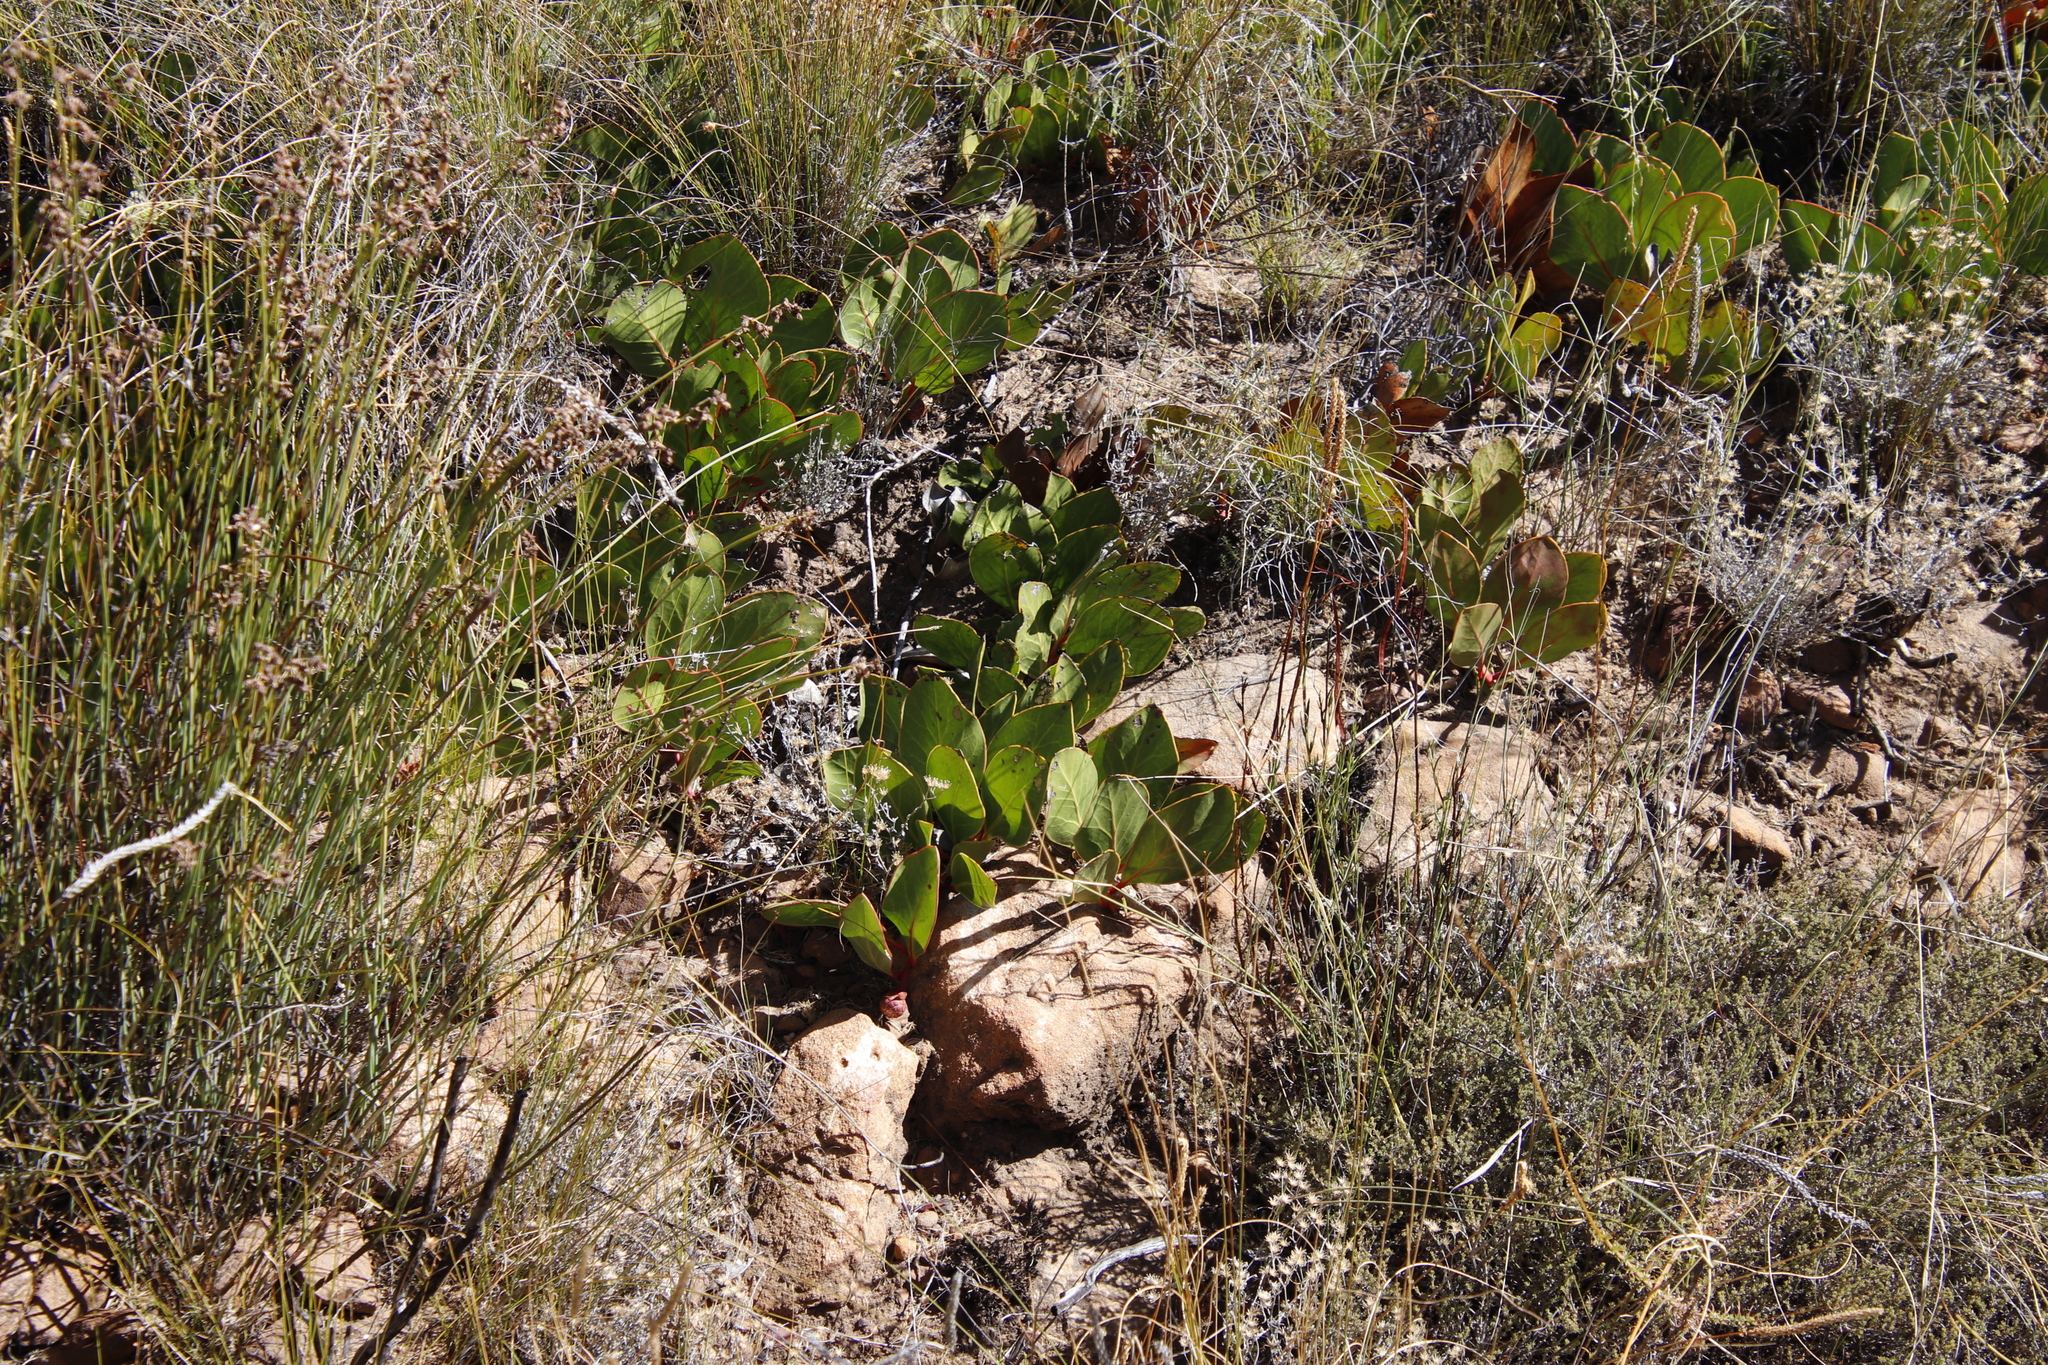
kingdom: Plantae
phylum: Tracheophyta
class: Magnoliopsida
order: Proteales
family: Proteaceae
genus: Protea
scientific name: Protea acaulos
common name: Common ground sugarbush
